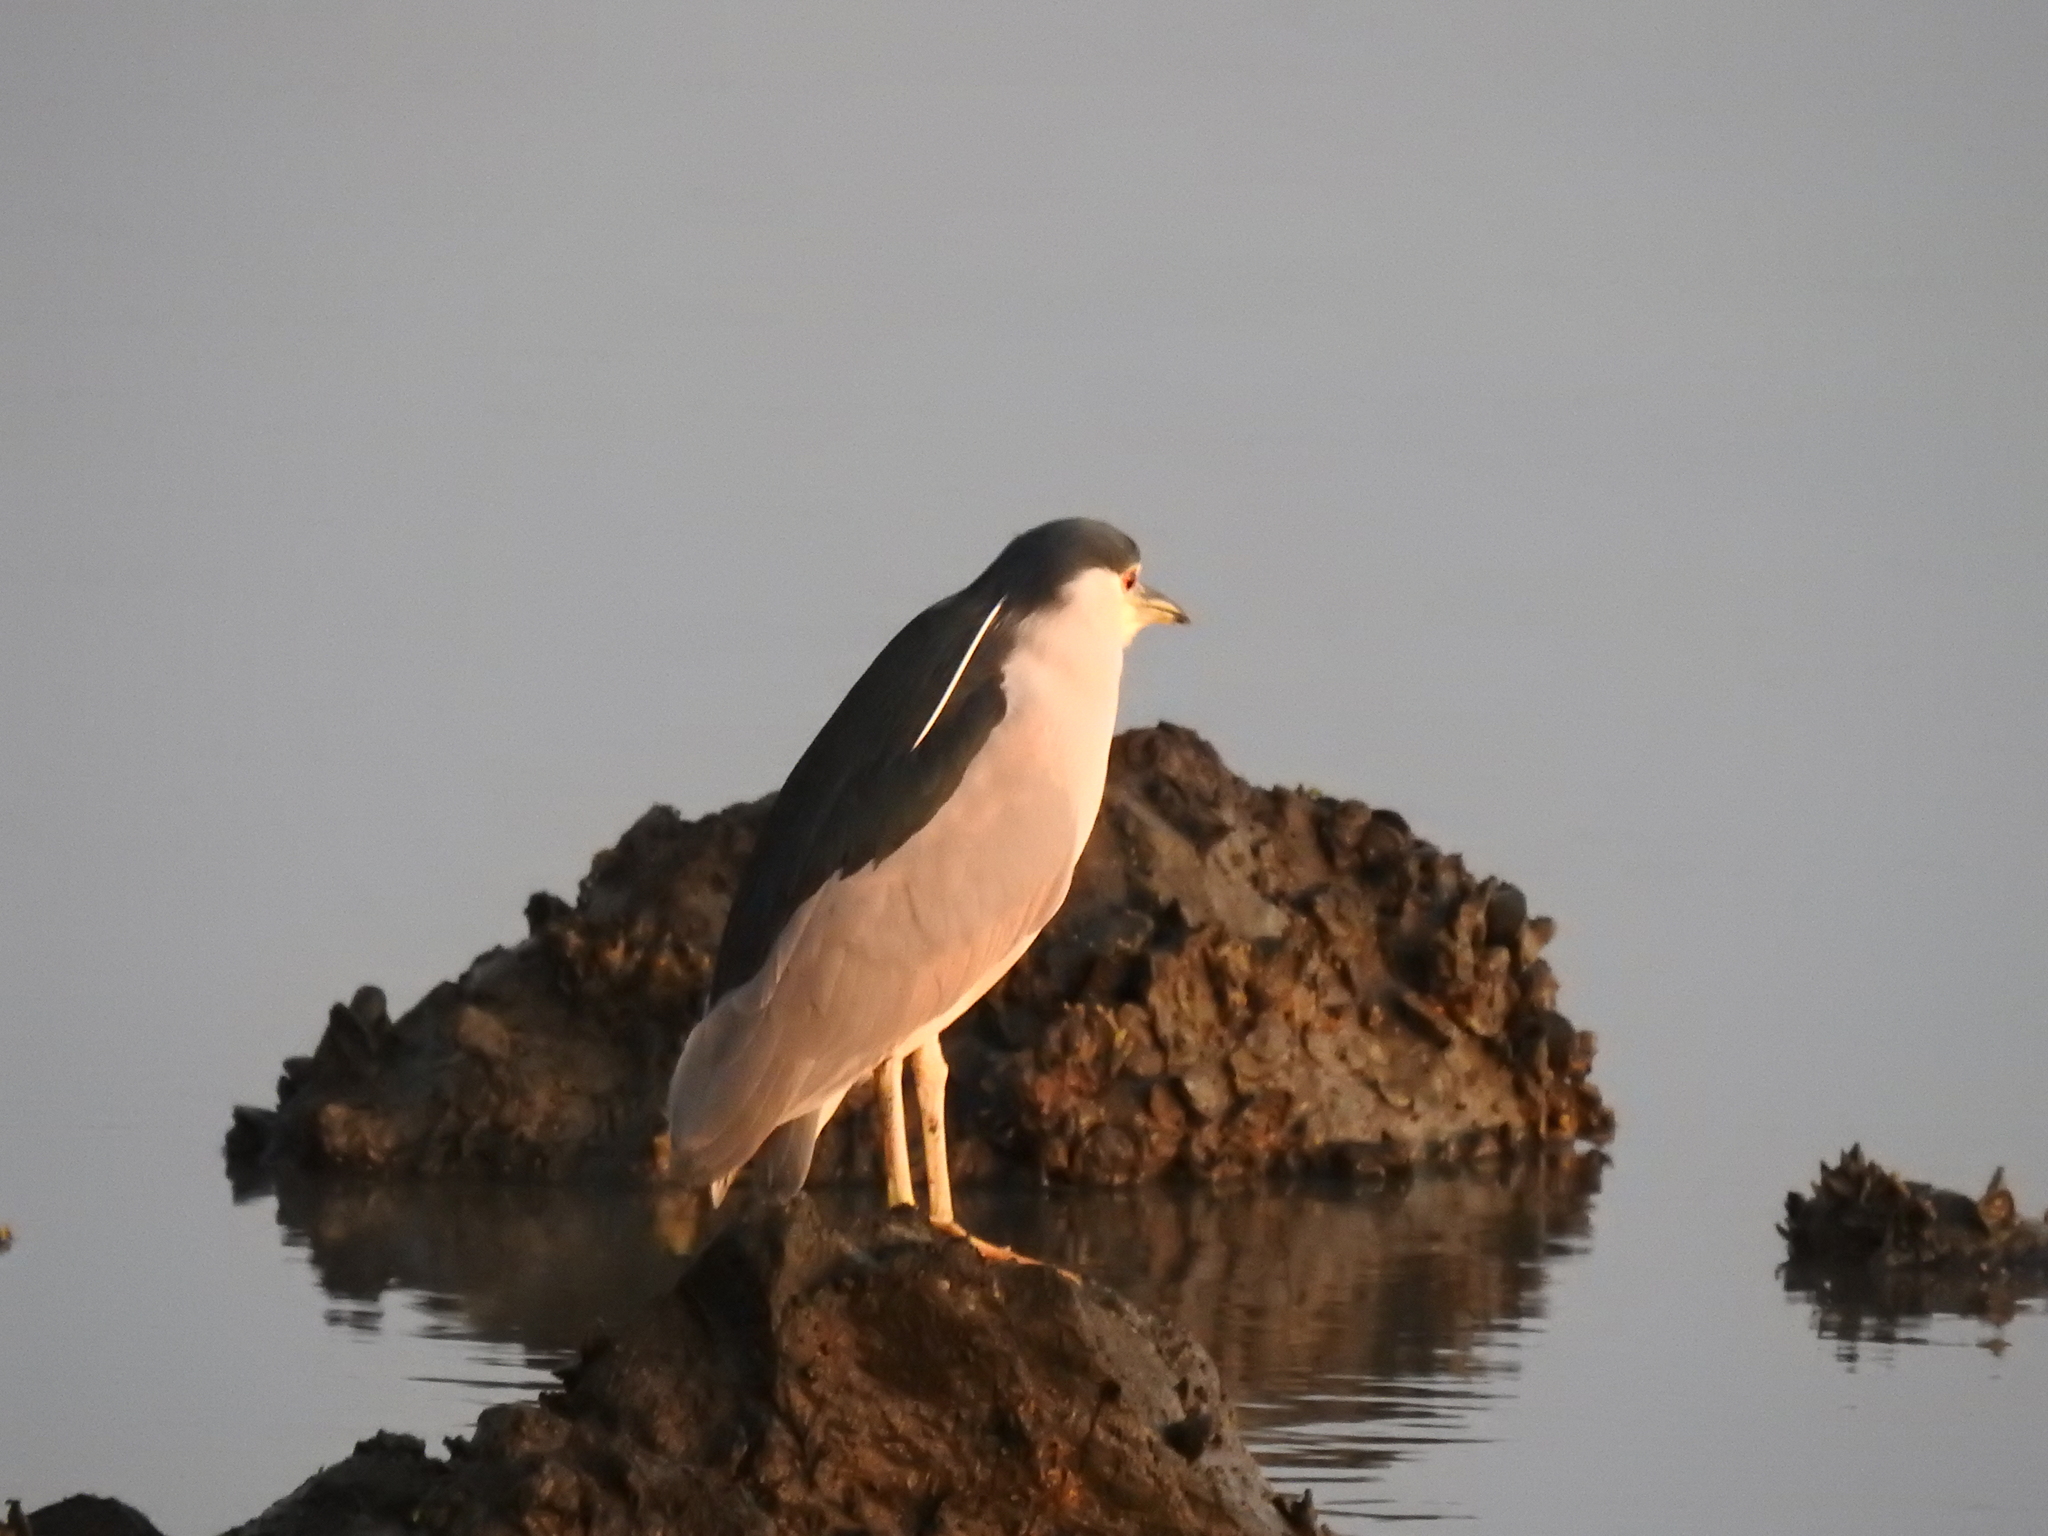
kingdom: Animalia
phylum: Chordata
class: Aves
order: Pelecaniformes
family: Ardeidae
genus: Nycticorax
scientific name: Nycticorax nycticorax
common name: Black-crowned night heron
